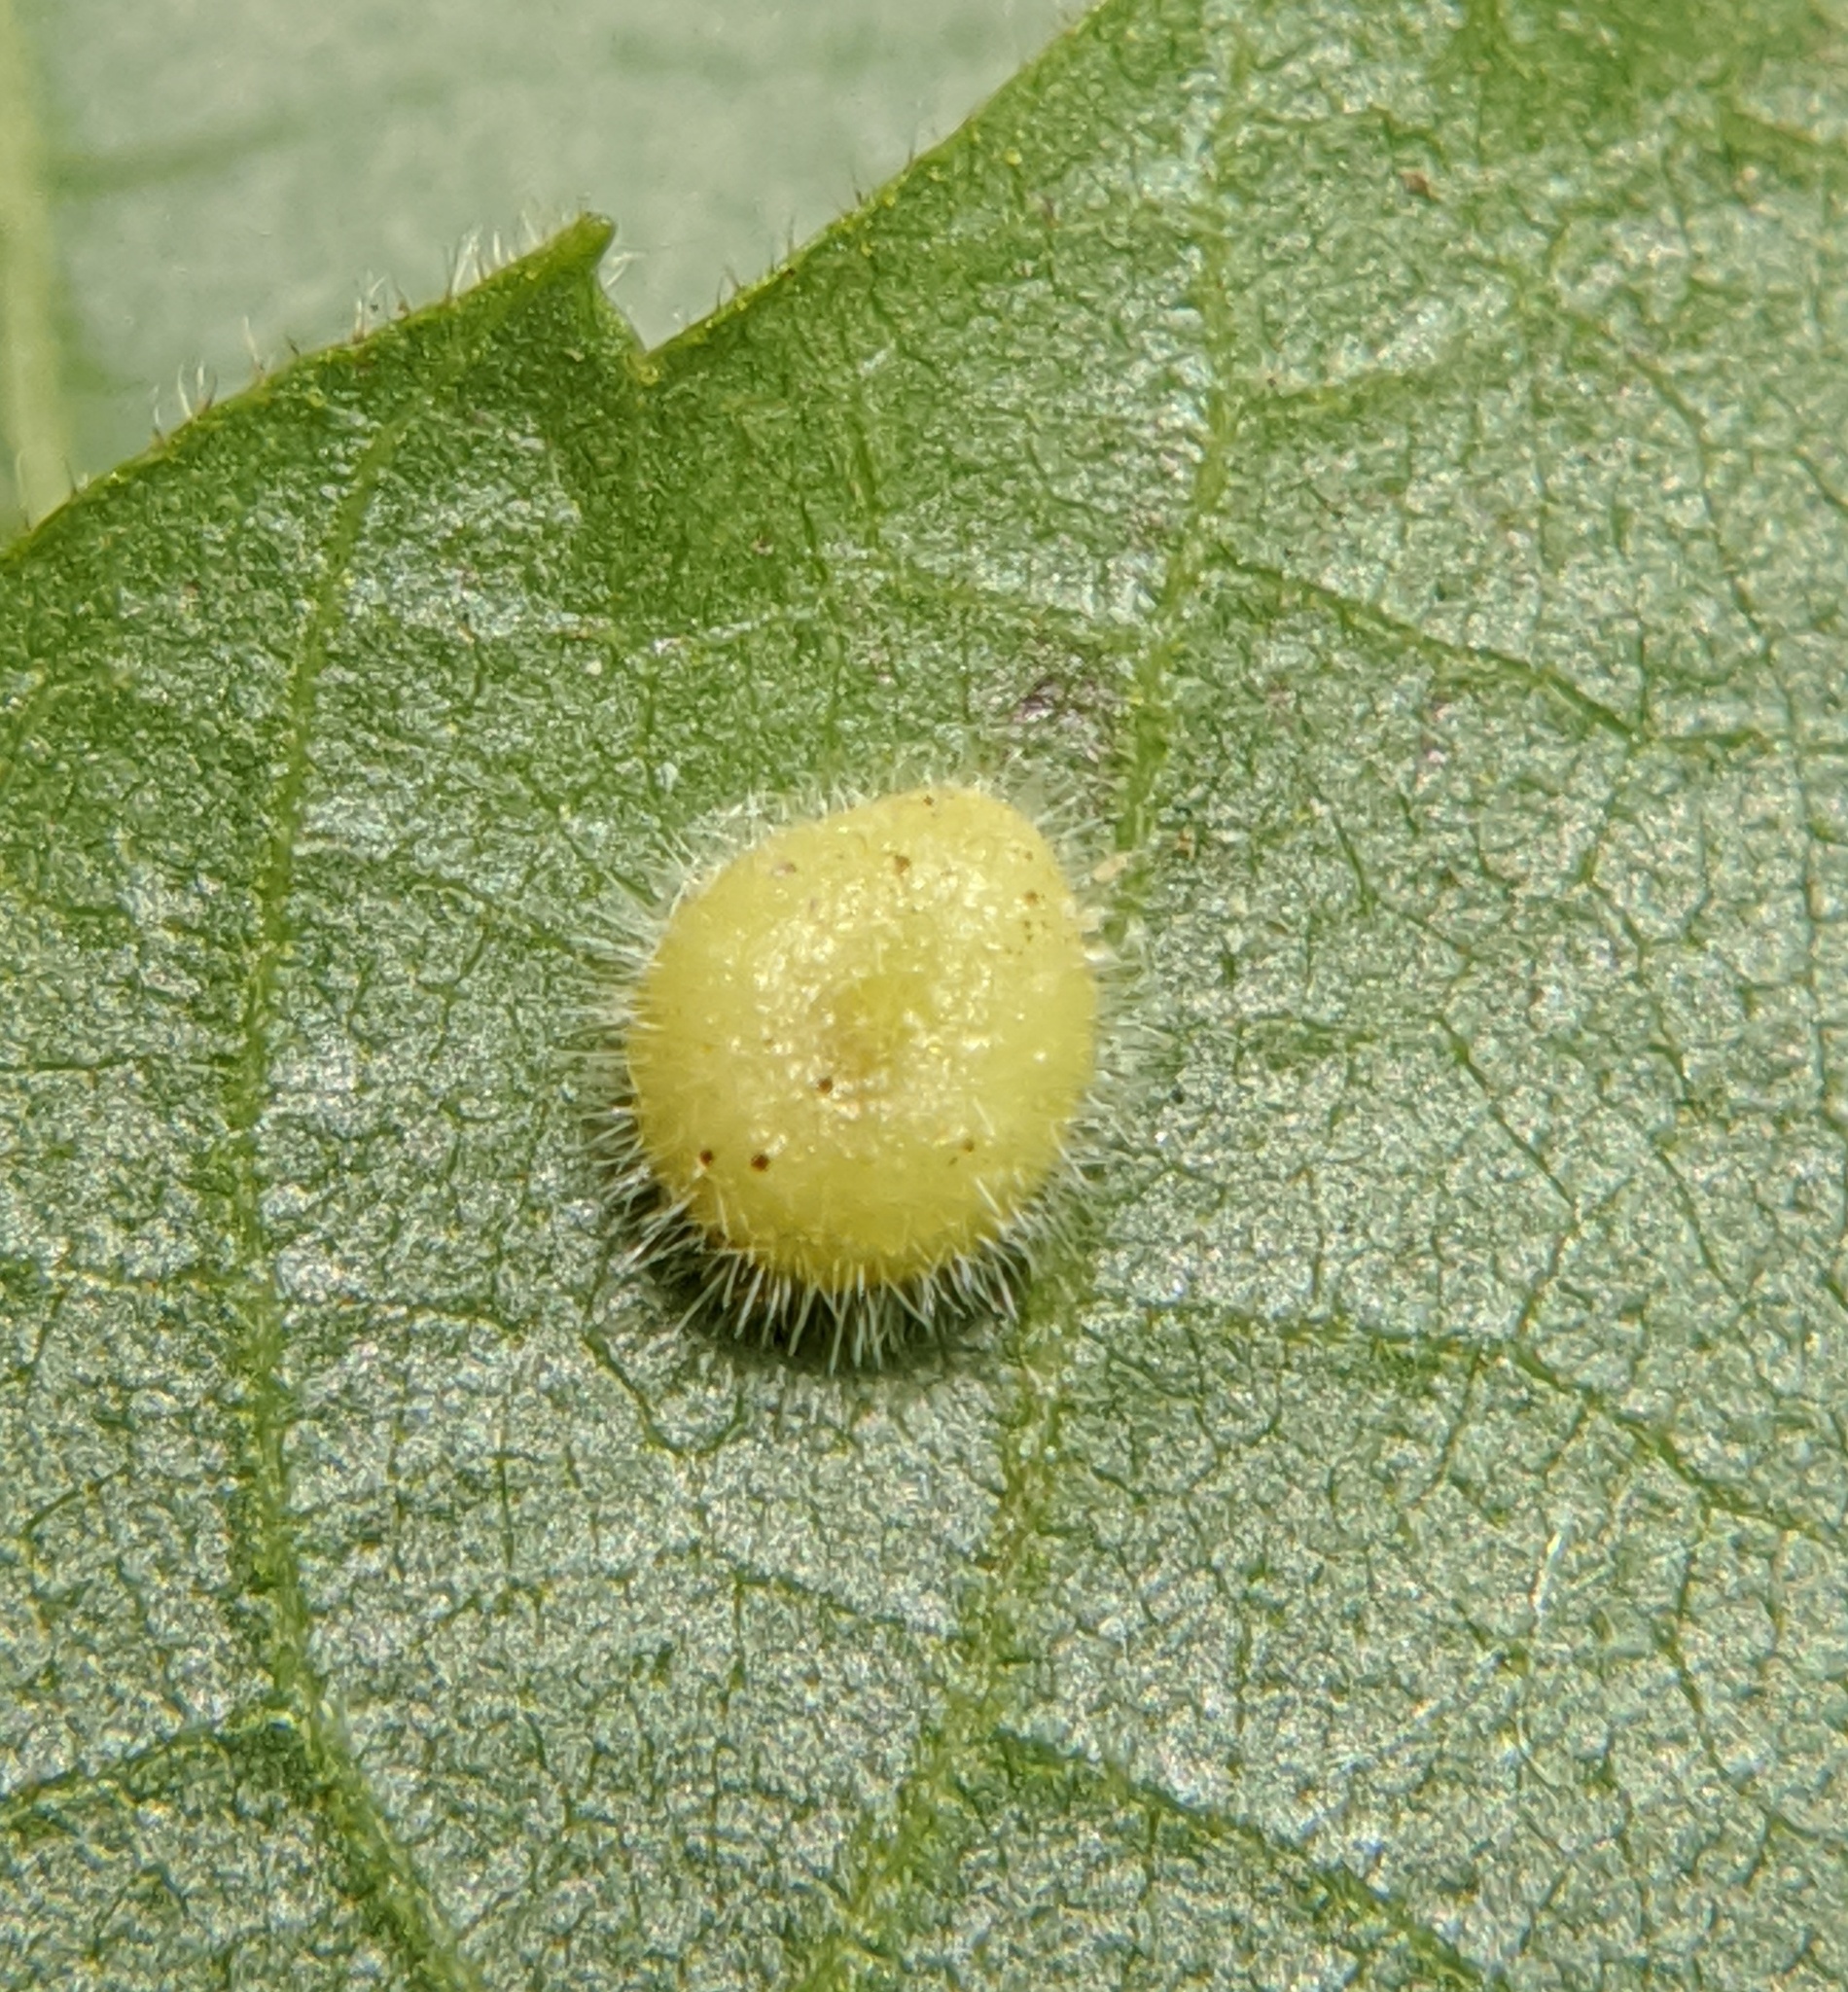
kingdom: Animalia
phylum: Arthropoda
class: Insecta
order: Diptera
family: Cecidomyiidae
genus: Caryomyia
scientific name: Caryomyia thompsoni
